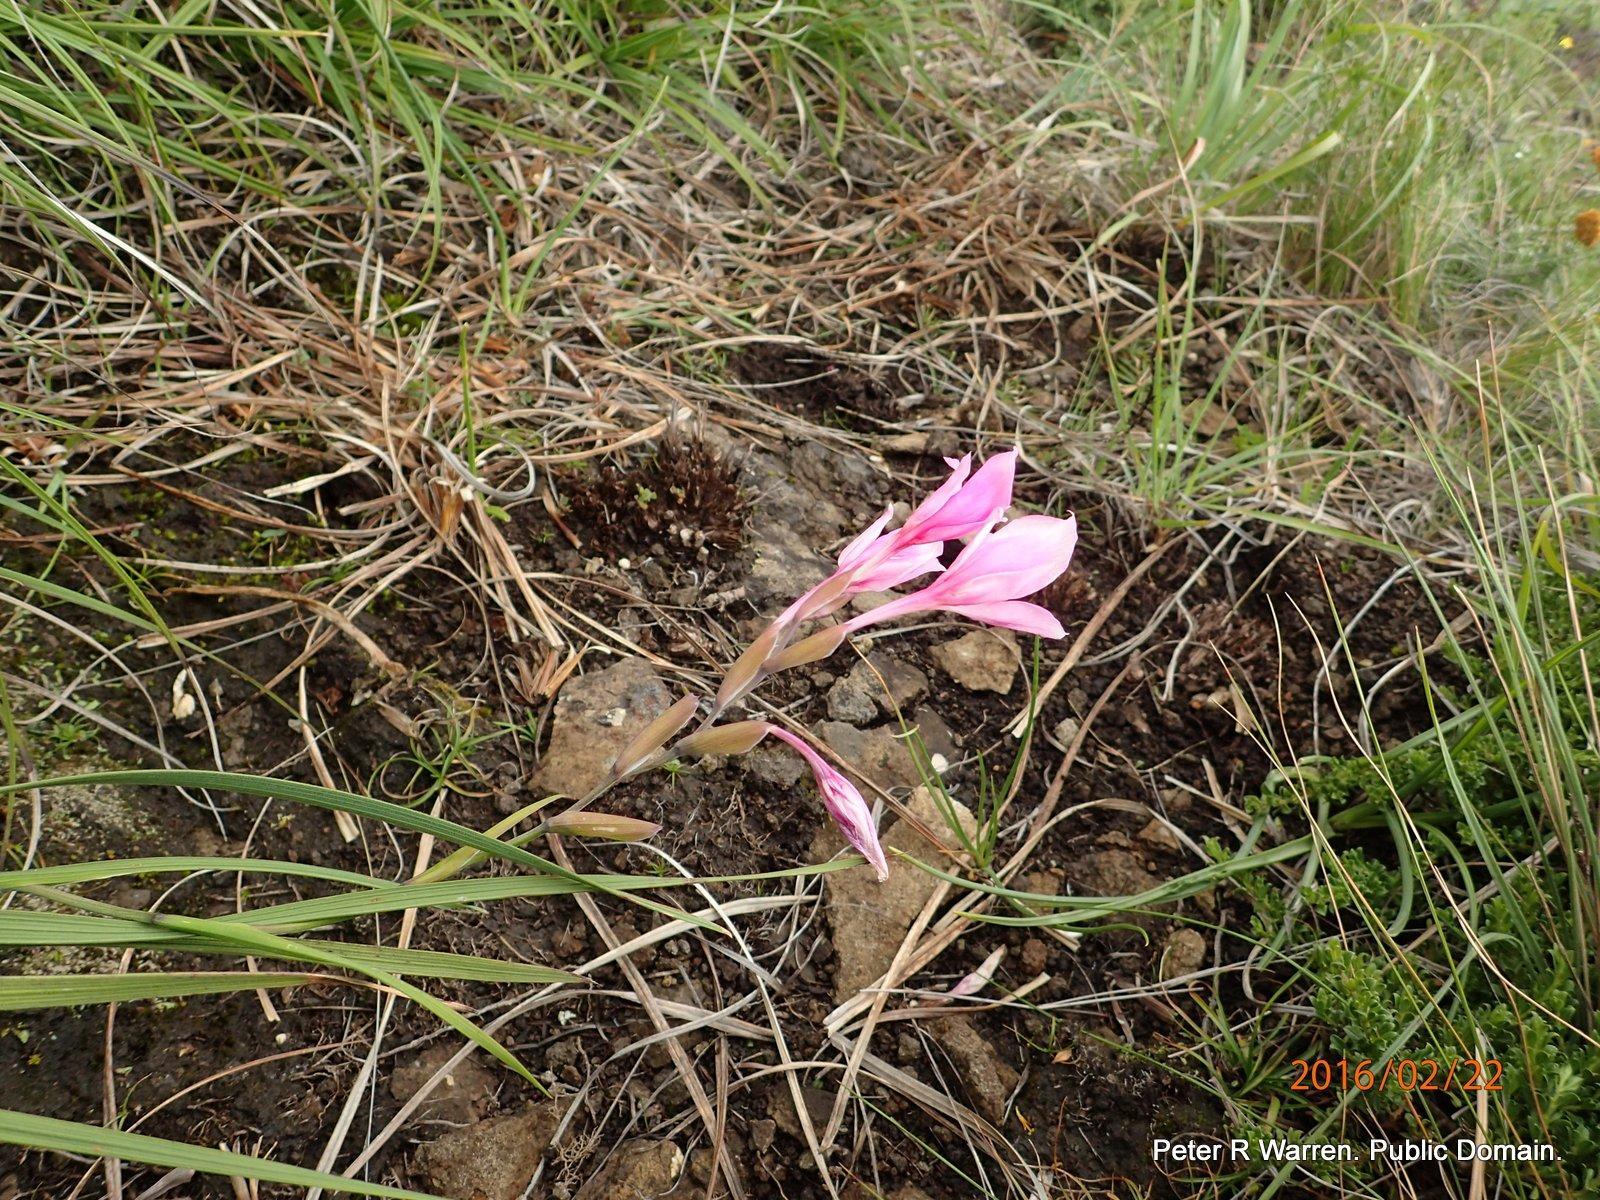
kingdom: Plantae
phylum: Tracheophyta
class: Liliopsida
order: Asparagales
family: Iridaceae
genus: Gladiolus
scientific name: Gladiolus microcarpus
